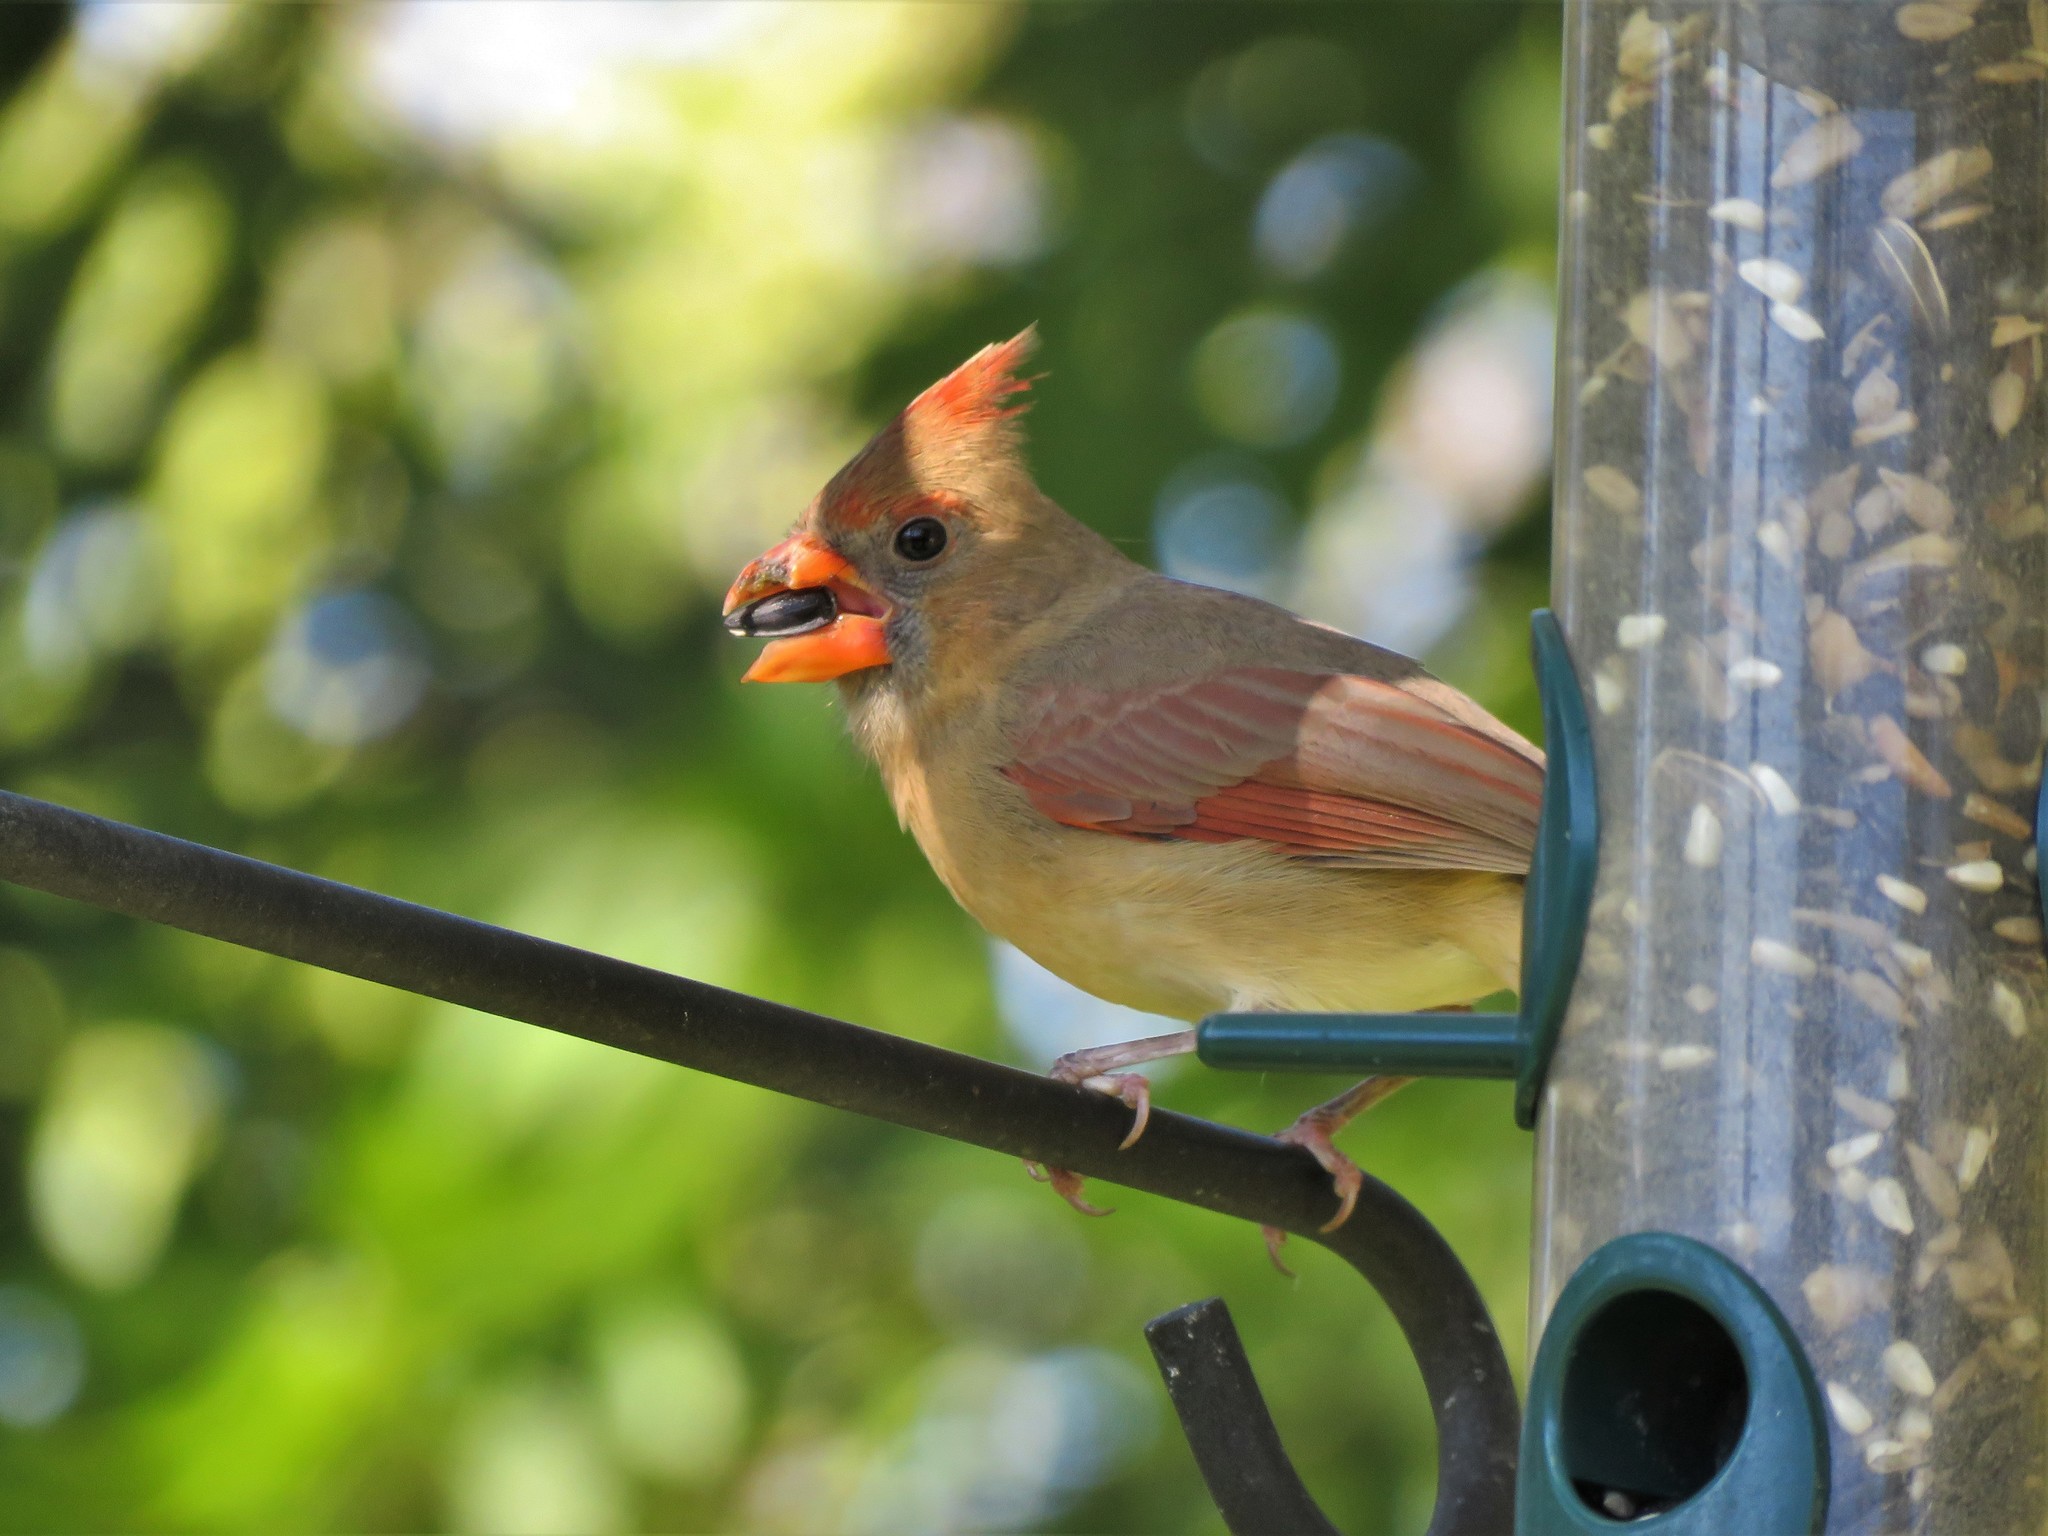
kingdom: Animalia
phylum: Chordata
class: Aves
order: Passeriformes
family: Cardinalidae
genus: Cardinalis
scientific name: Cardinalis cardinalis
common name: Northern cardinal
